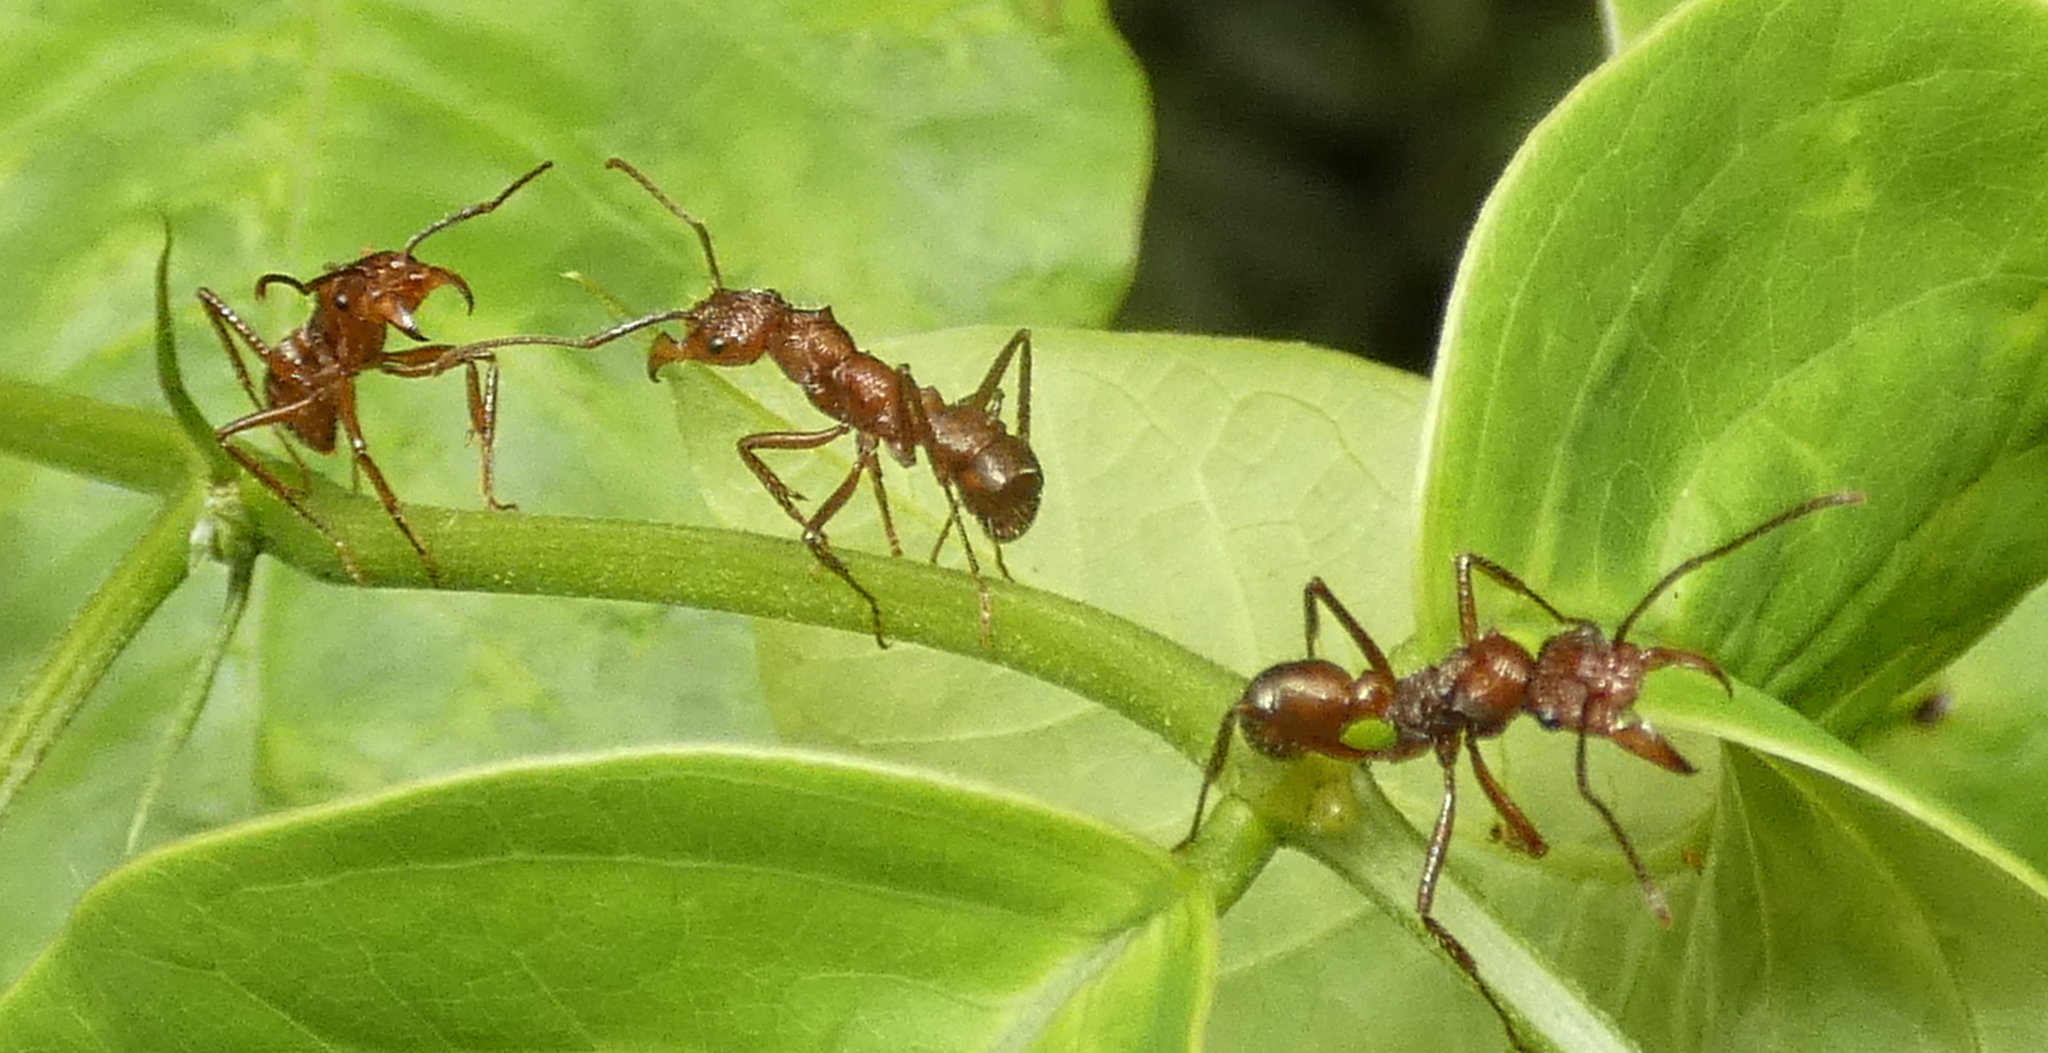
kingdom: Animalia
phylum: Arthropoda
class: Insecta
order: Hymenoptera
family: Formicidae
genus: Ectatomma
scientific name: Ectatomma tuberculatum
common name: Ant
